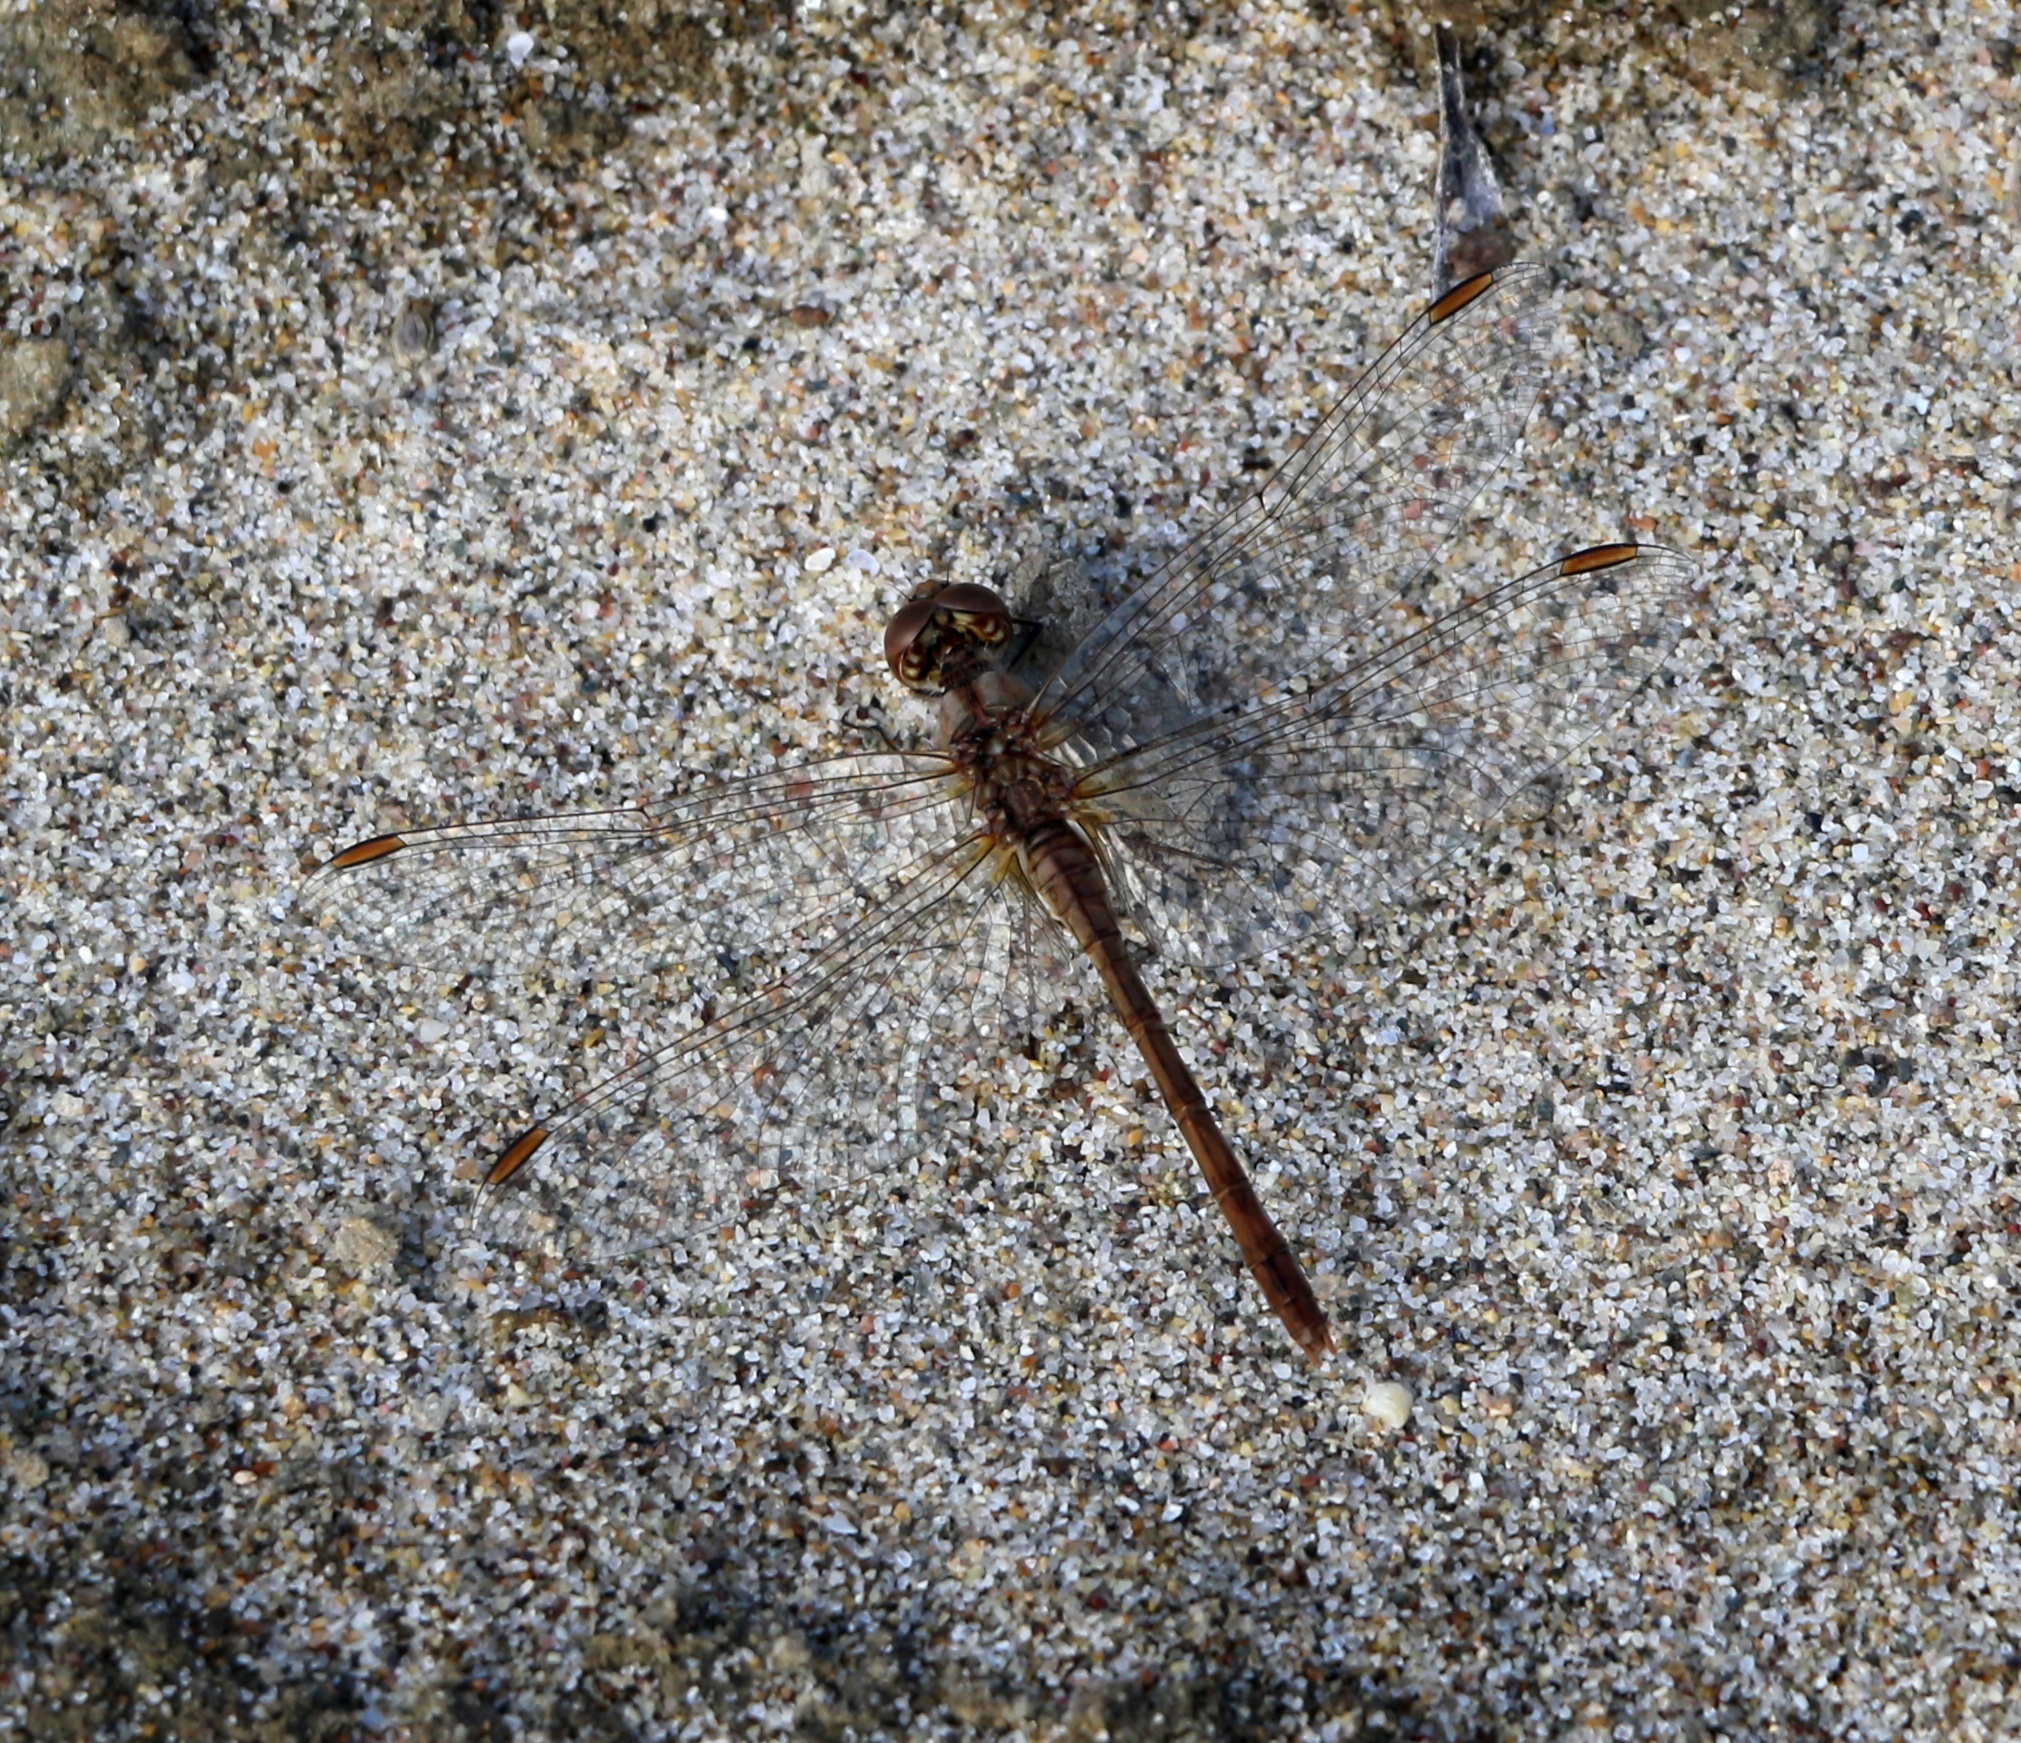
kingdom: Animalia
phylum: Arthropoda
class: Insecta
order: Odonata
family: Libellulidae
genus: Sympetrum
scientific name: Sympetrum meridionale
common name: Southern darter
